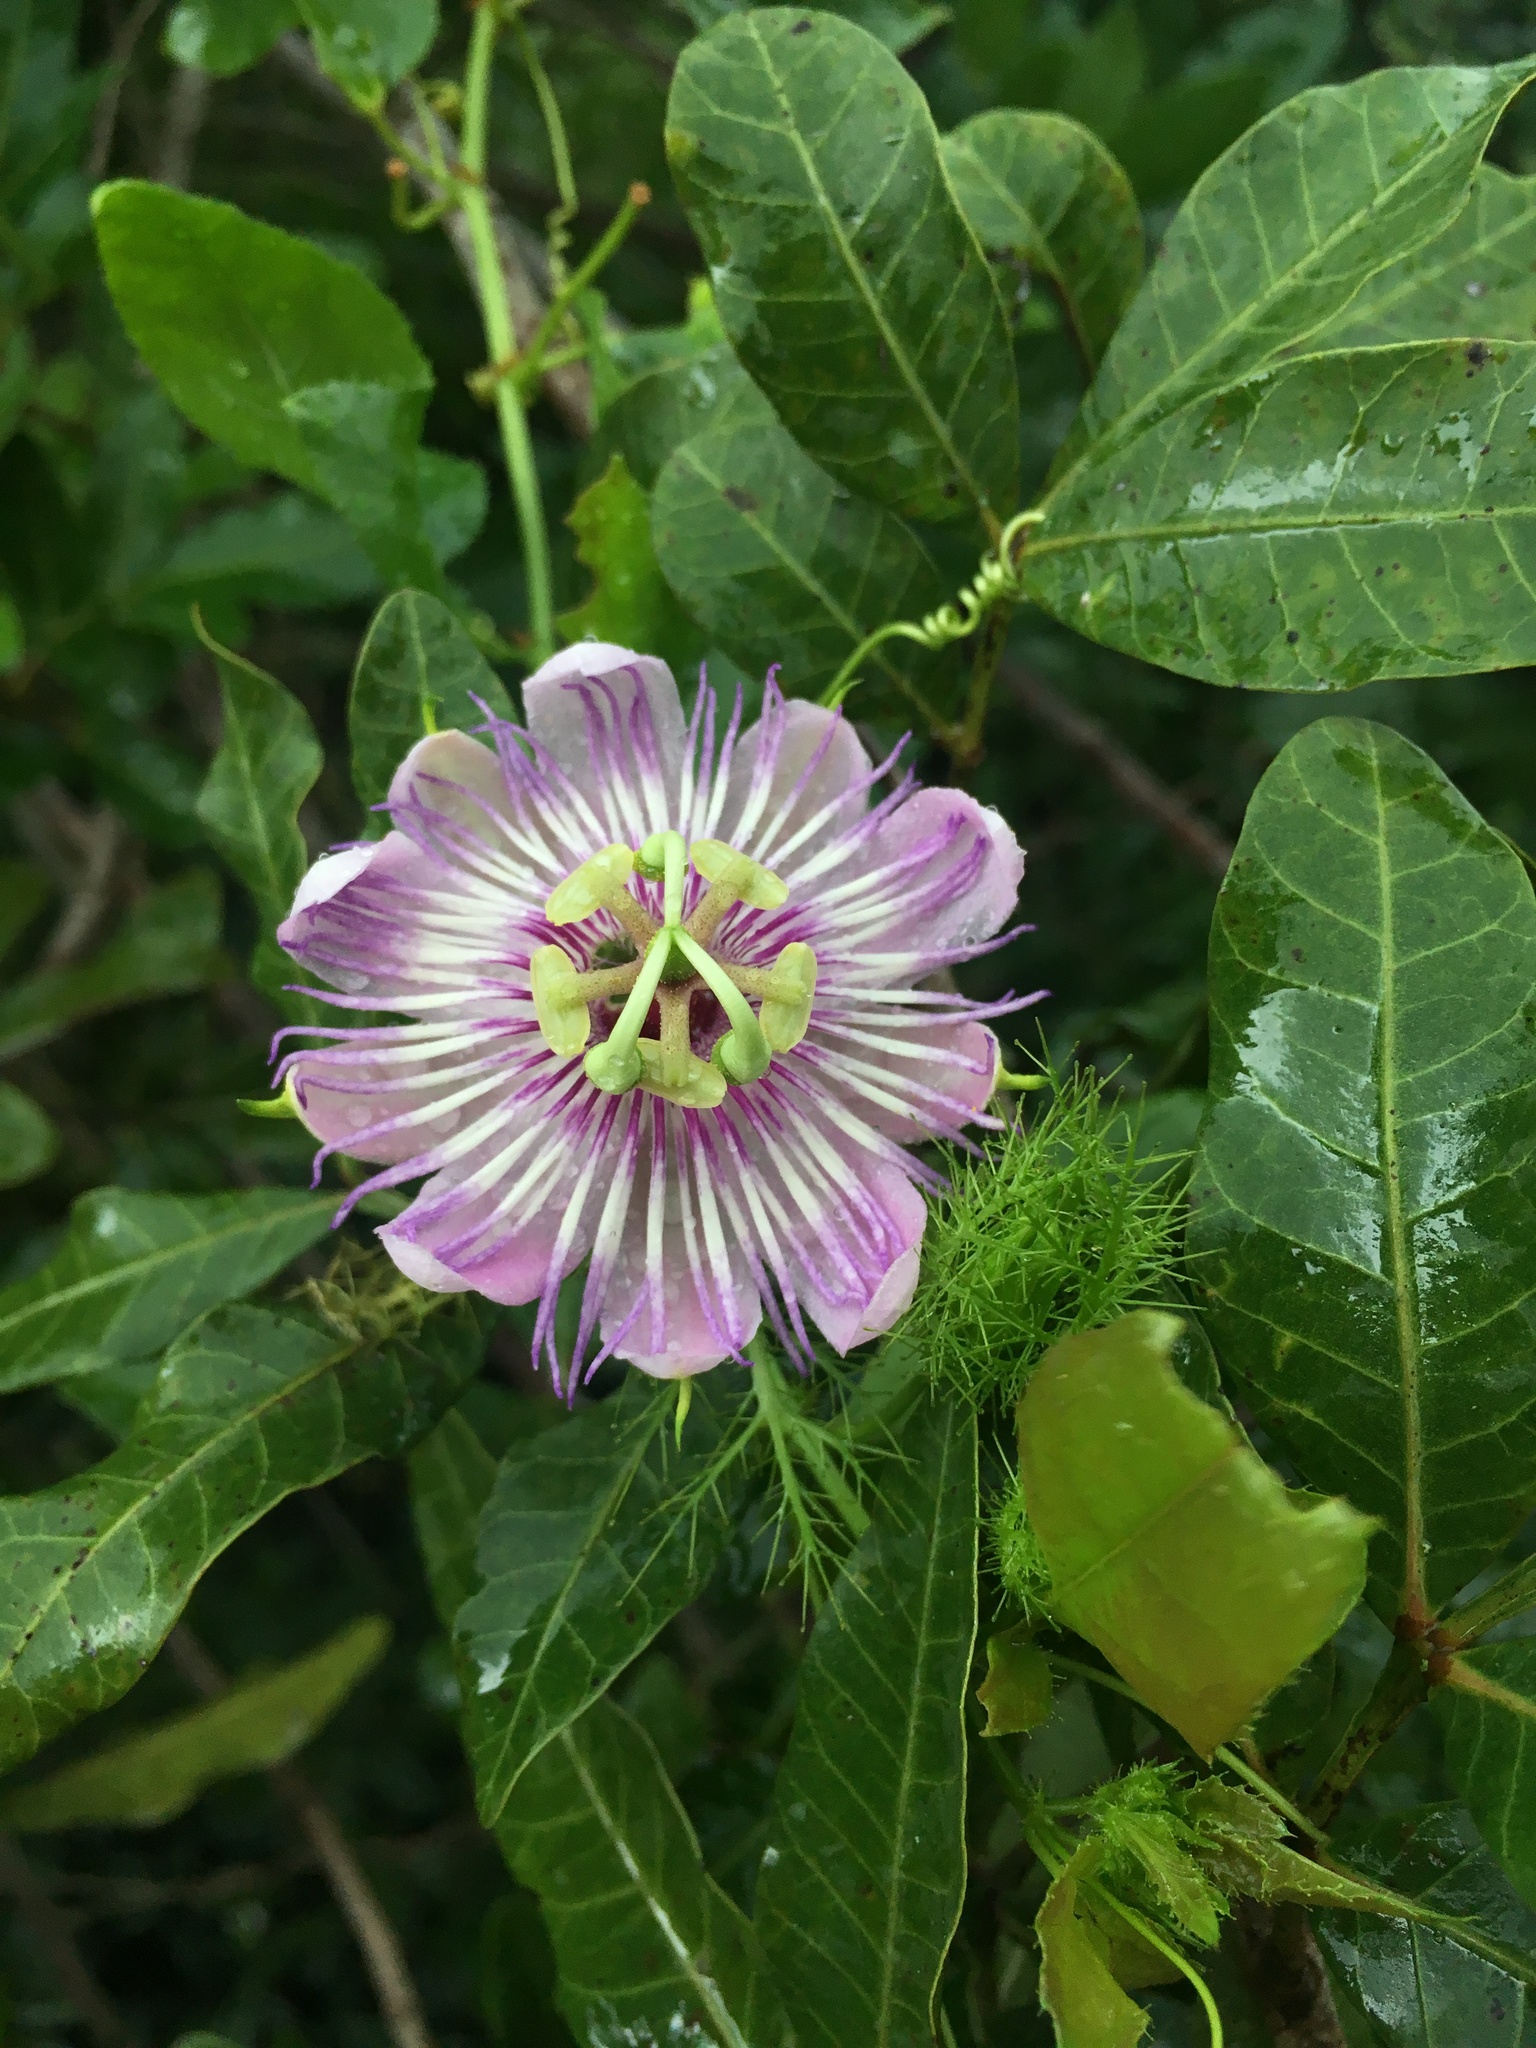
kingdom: Plantae
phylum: Tracheophyta
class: Magnoliopsida
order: Malpighiales
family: Passifloraceae
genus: Passiflora
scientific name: Passiflora ciliata
